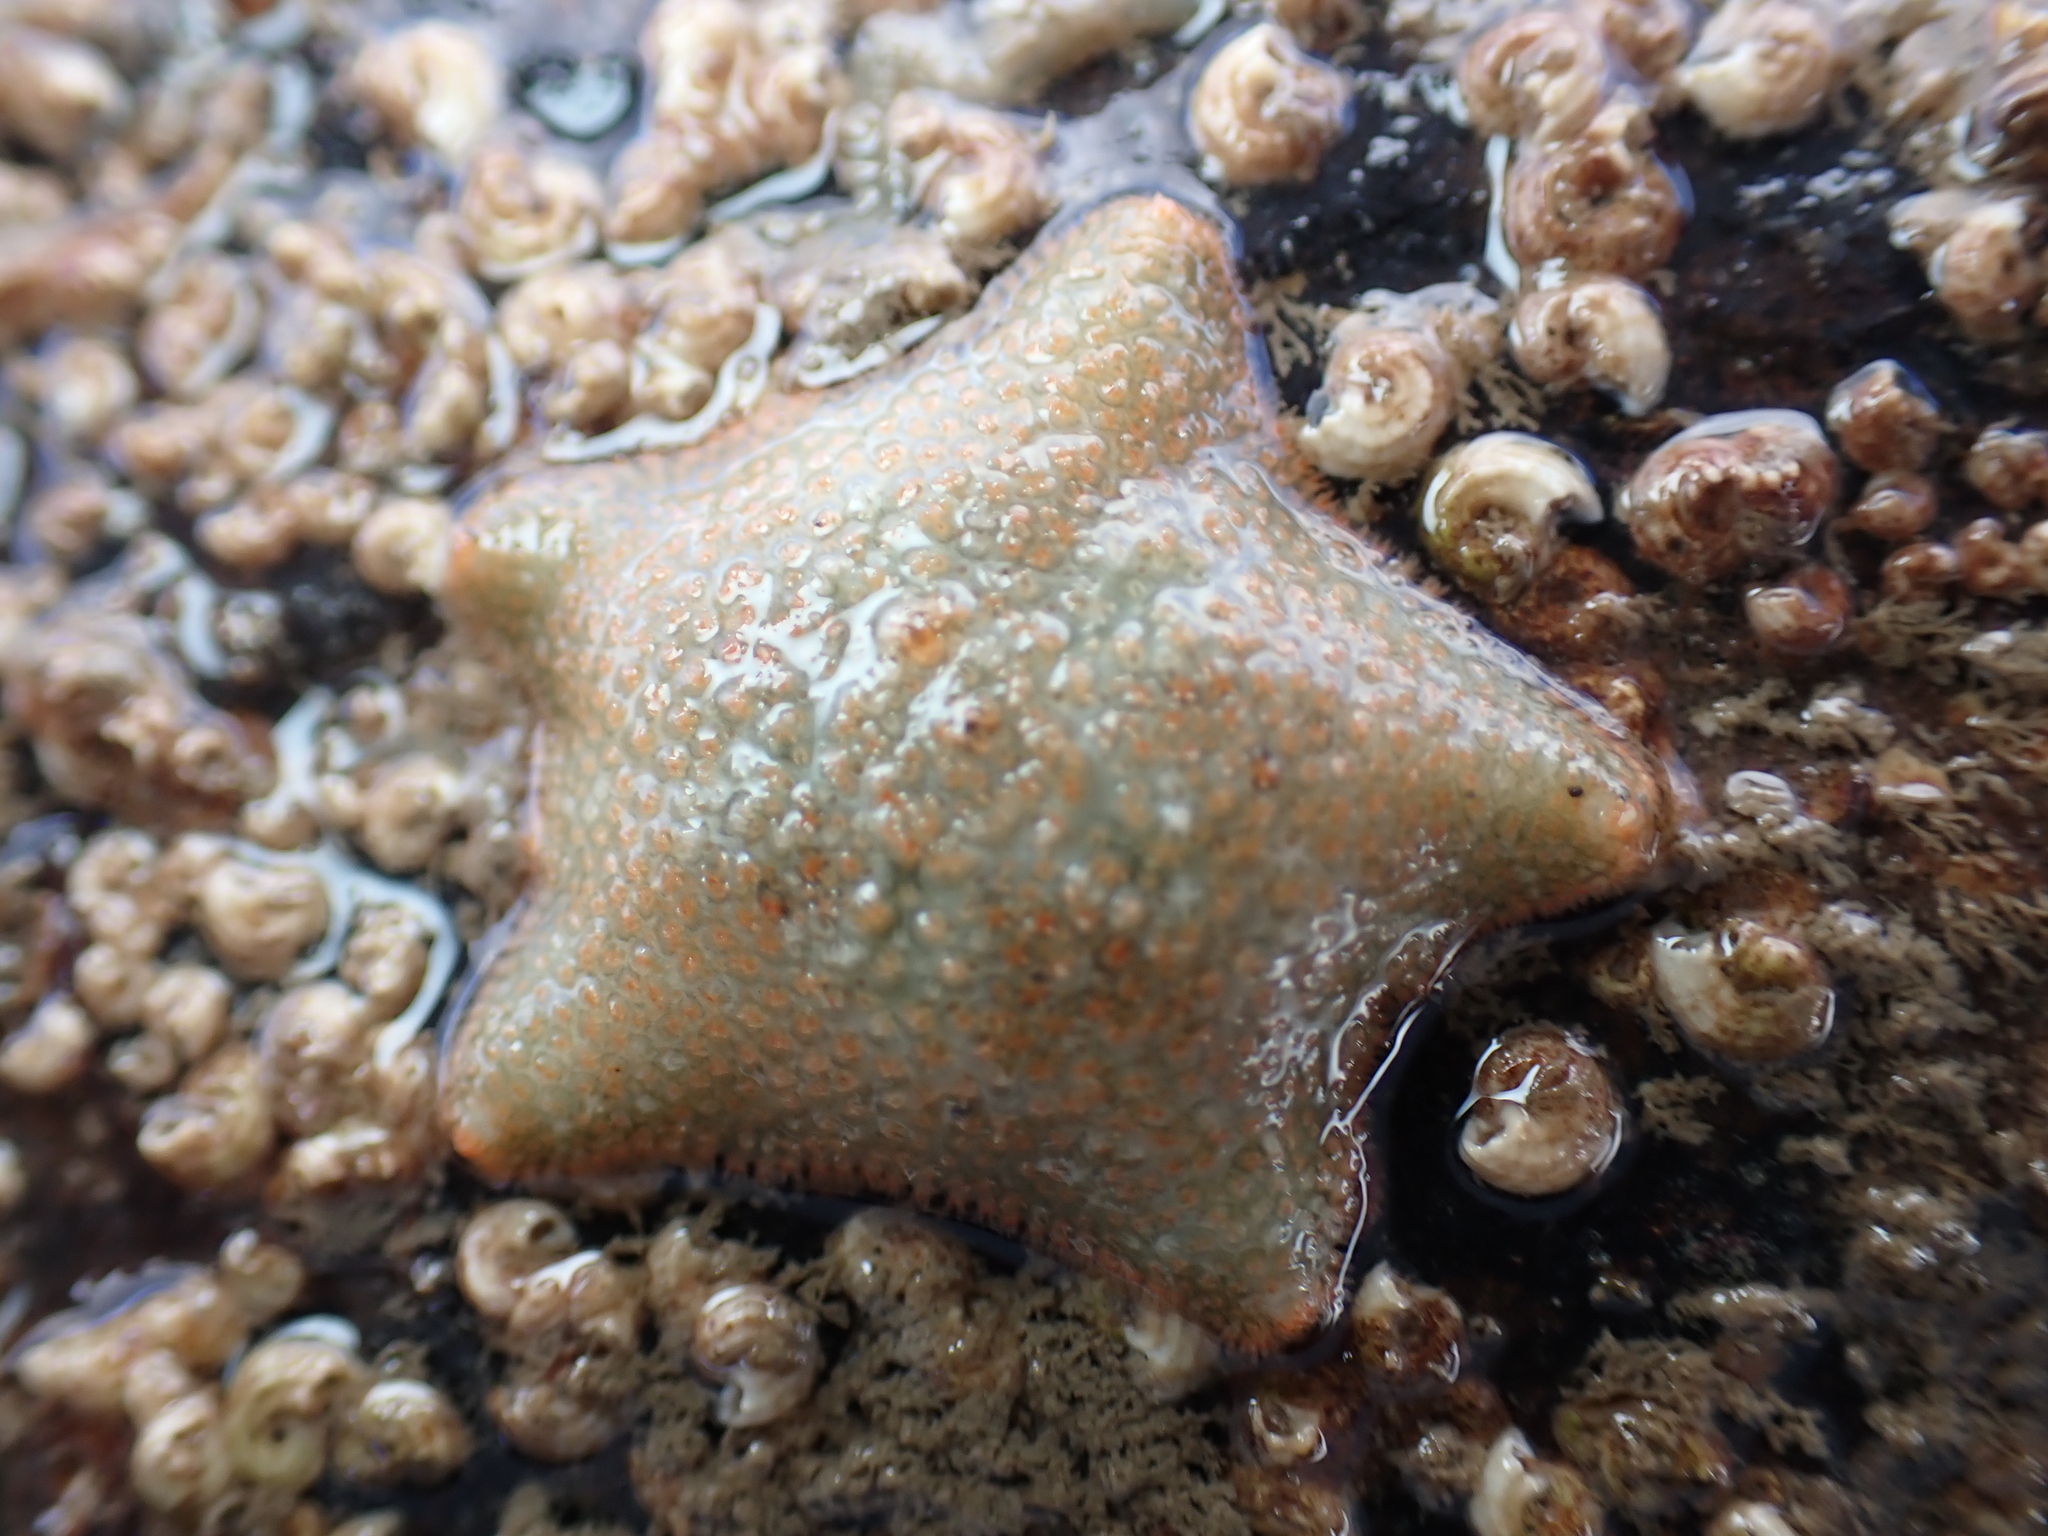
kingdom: Animalia
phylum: Echinodermata
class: Asteroidea
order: Valvatida
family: Asterinidae
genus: Asterina
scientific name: Asterina gibbosa
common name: Cushion star
